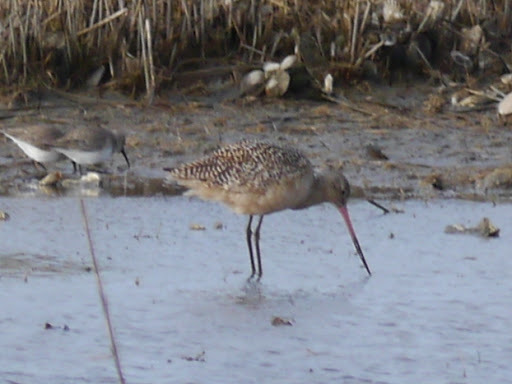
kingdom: Animalia
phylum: Chordata
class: Aves
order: Charadriiformes
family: Scolopacidae
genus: Limosa
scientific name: Limosa fedoa
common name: Marbled godwit
